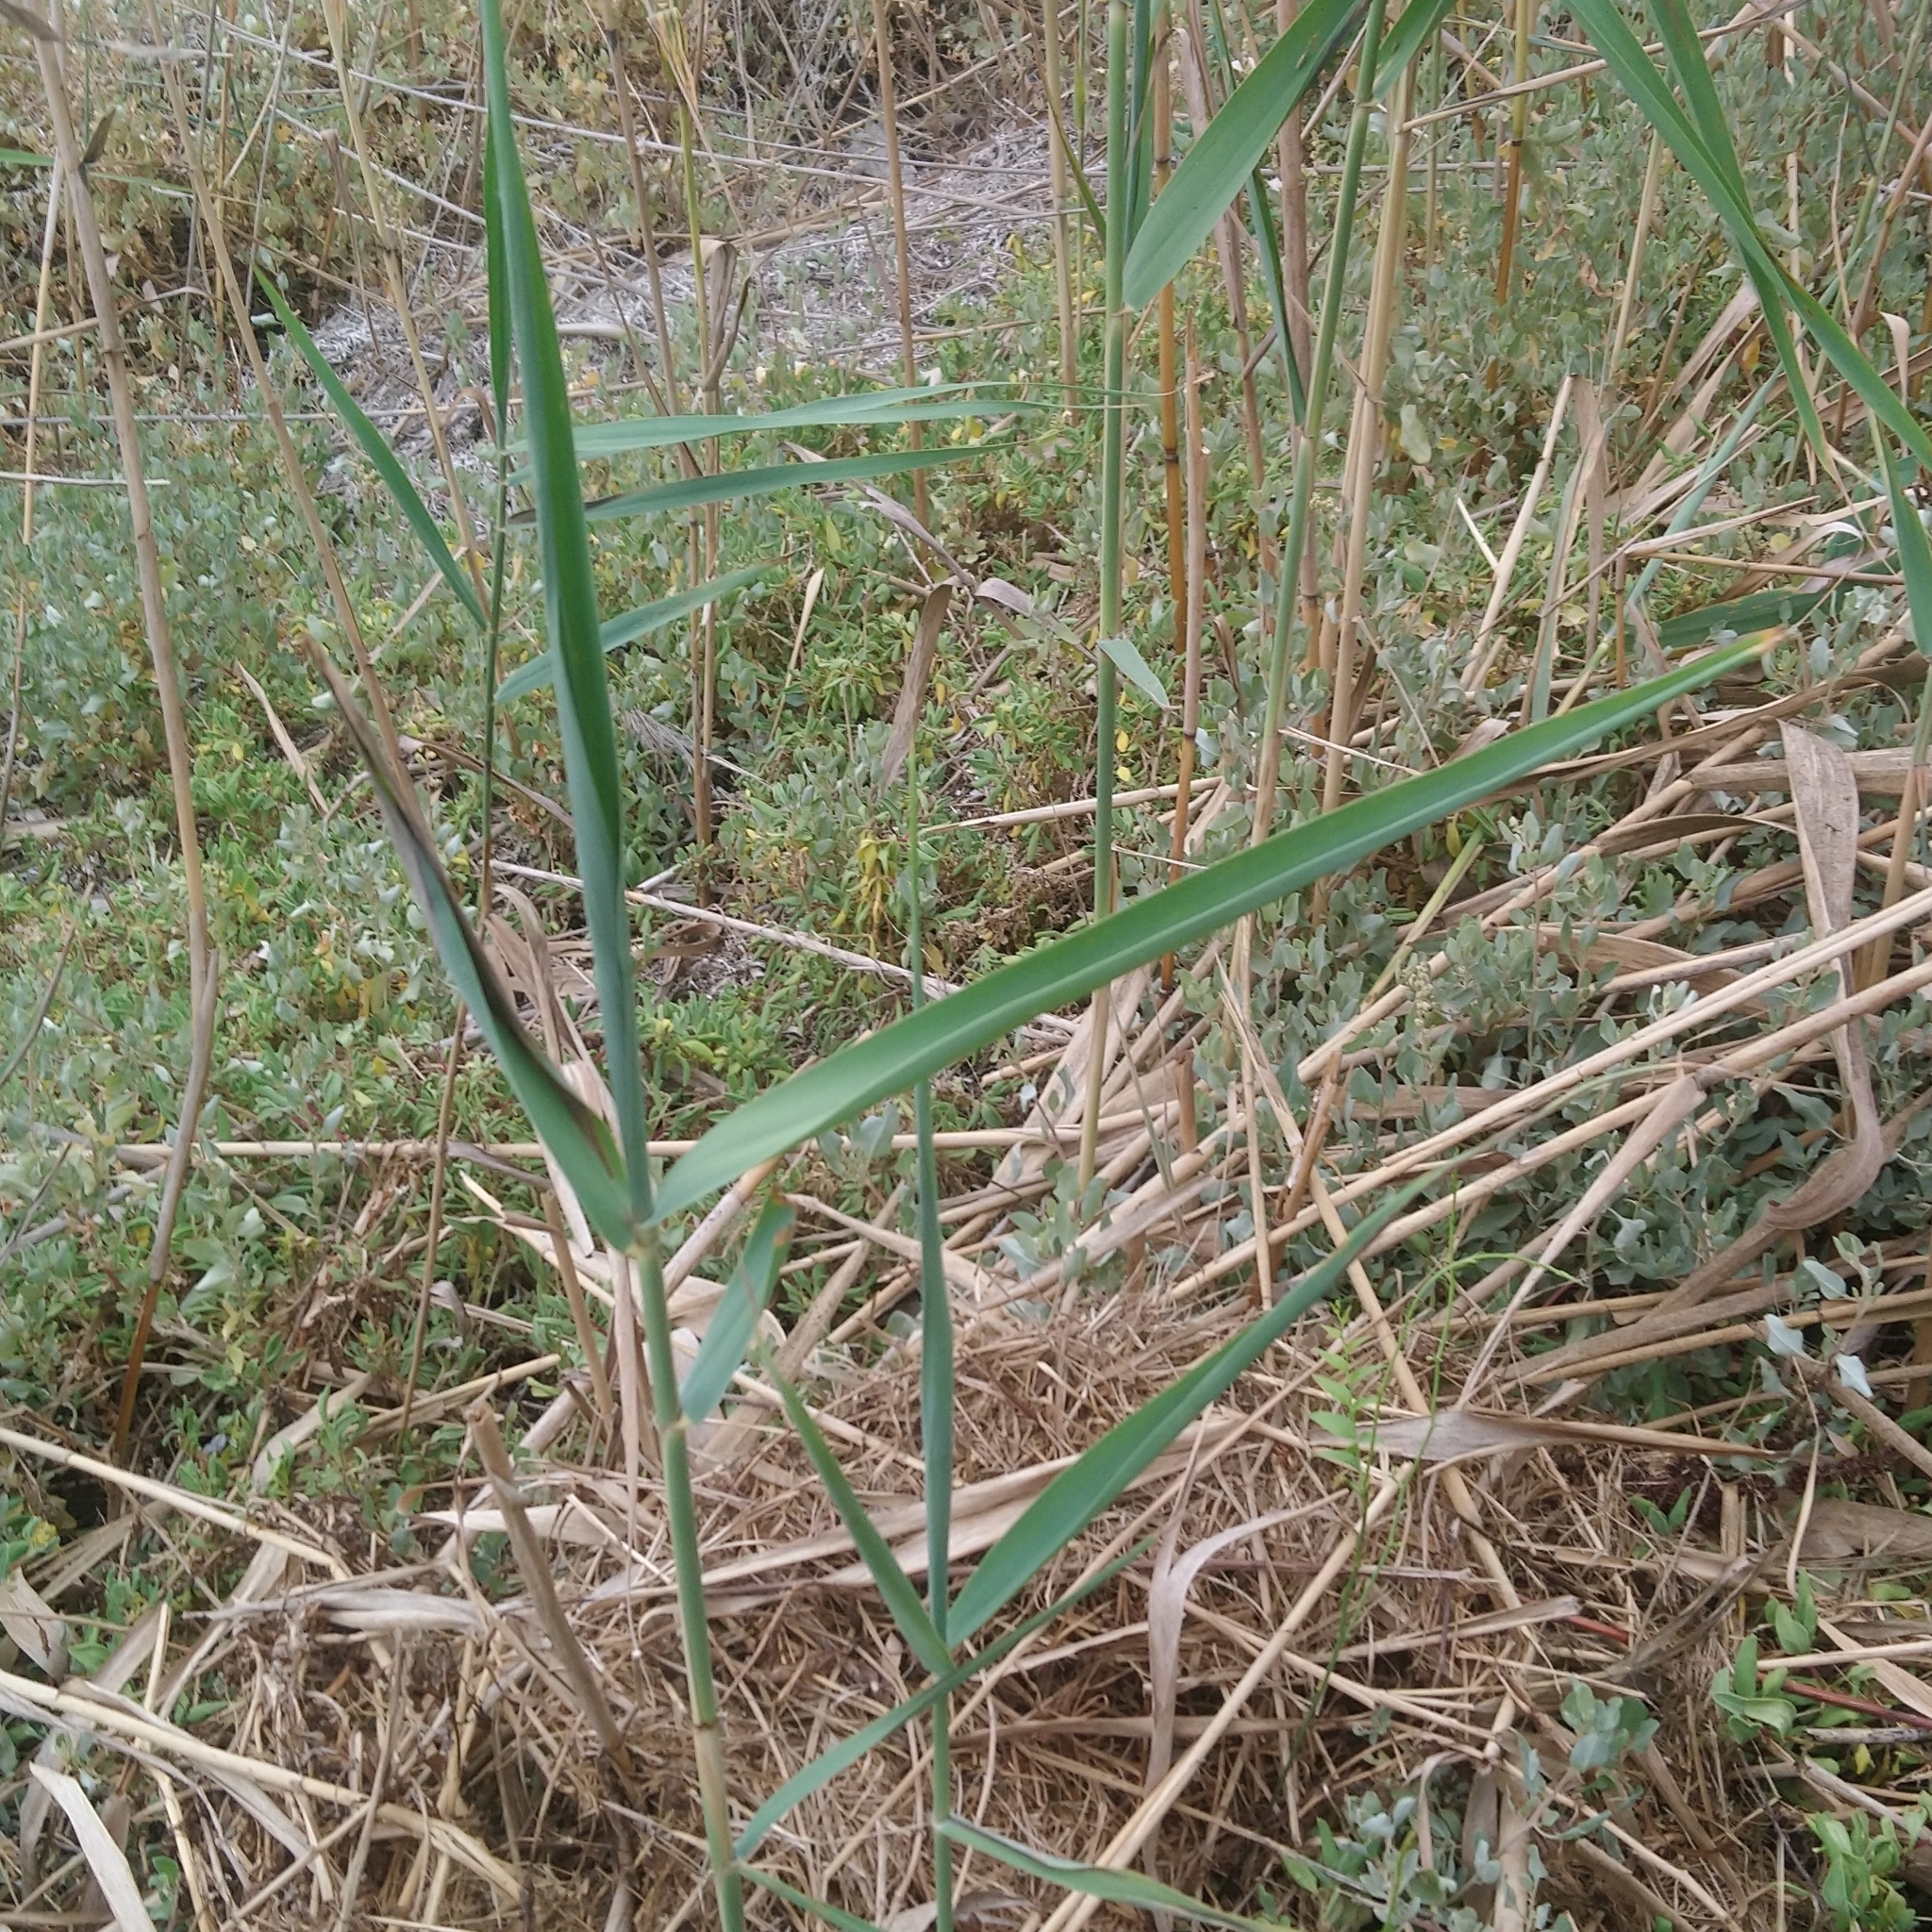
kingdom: Plantae
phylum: Tracheophyta
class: Liliopsida
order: Poales
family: Poaceae
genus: Phragmites
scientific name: Phragmites australis
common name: Common reed
